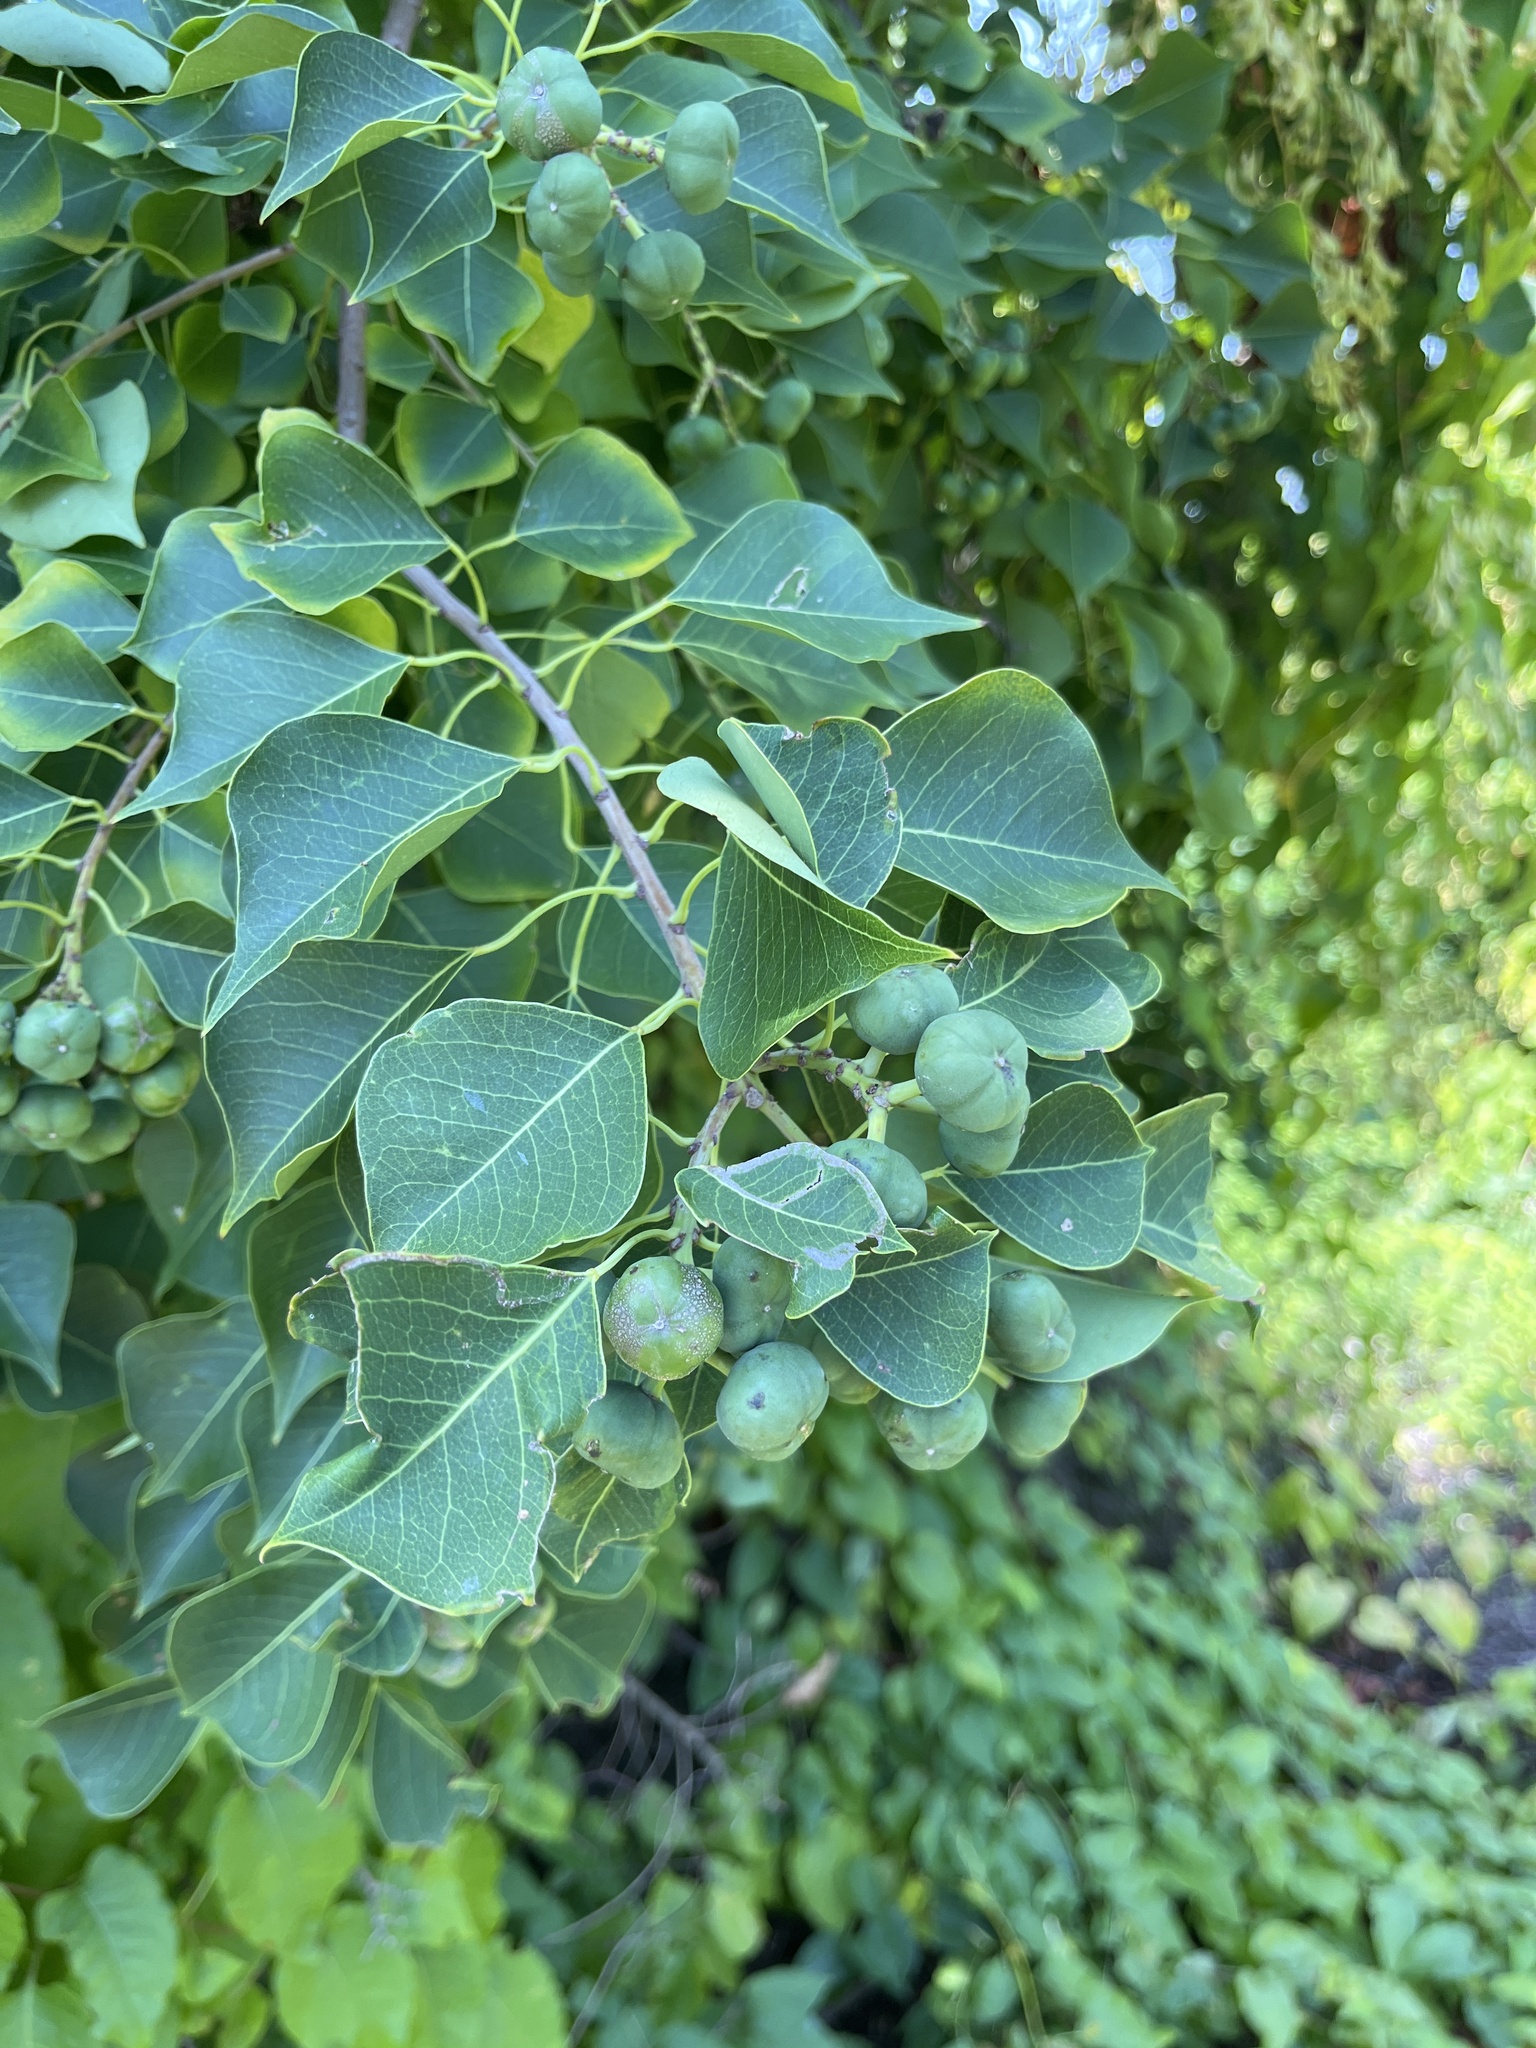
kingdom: Plantae
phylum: Tracheophyta
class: Magnoliopsida
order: Malpighiales
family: Euphorbiaceae
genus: Triadica
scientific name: Triadica sebifera
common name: Chinese tallow
